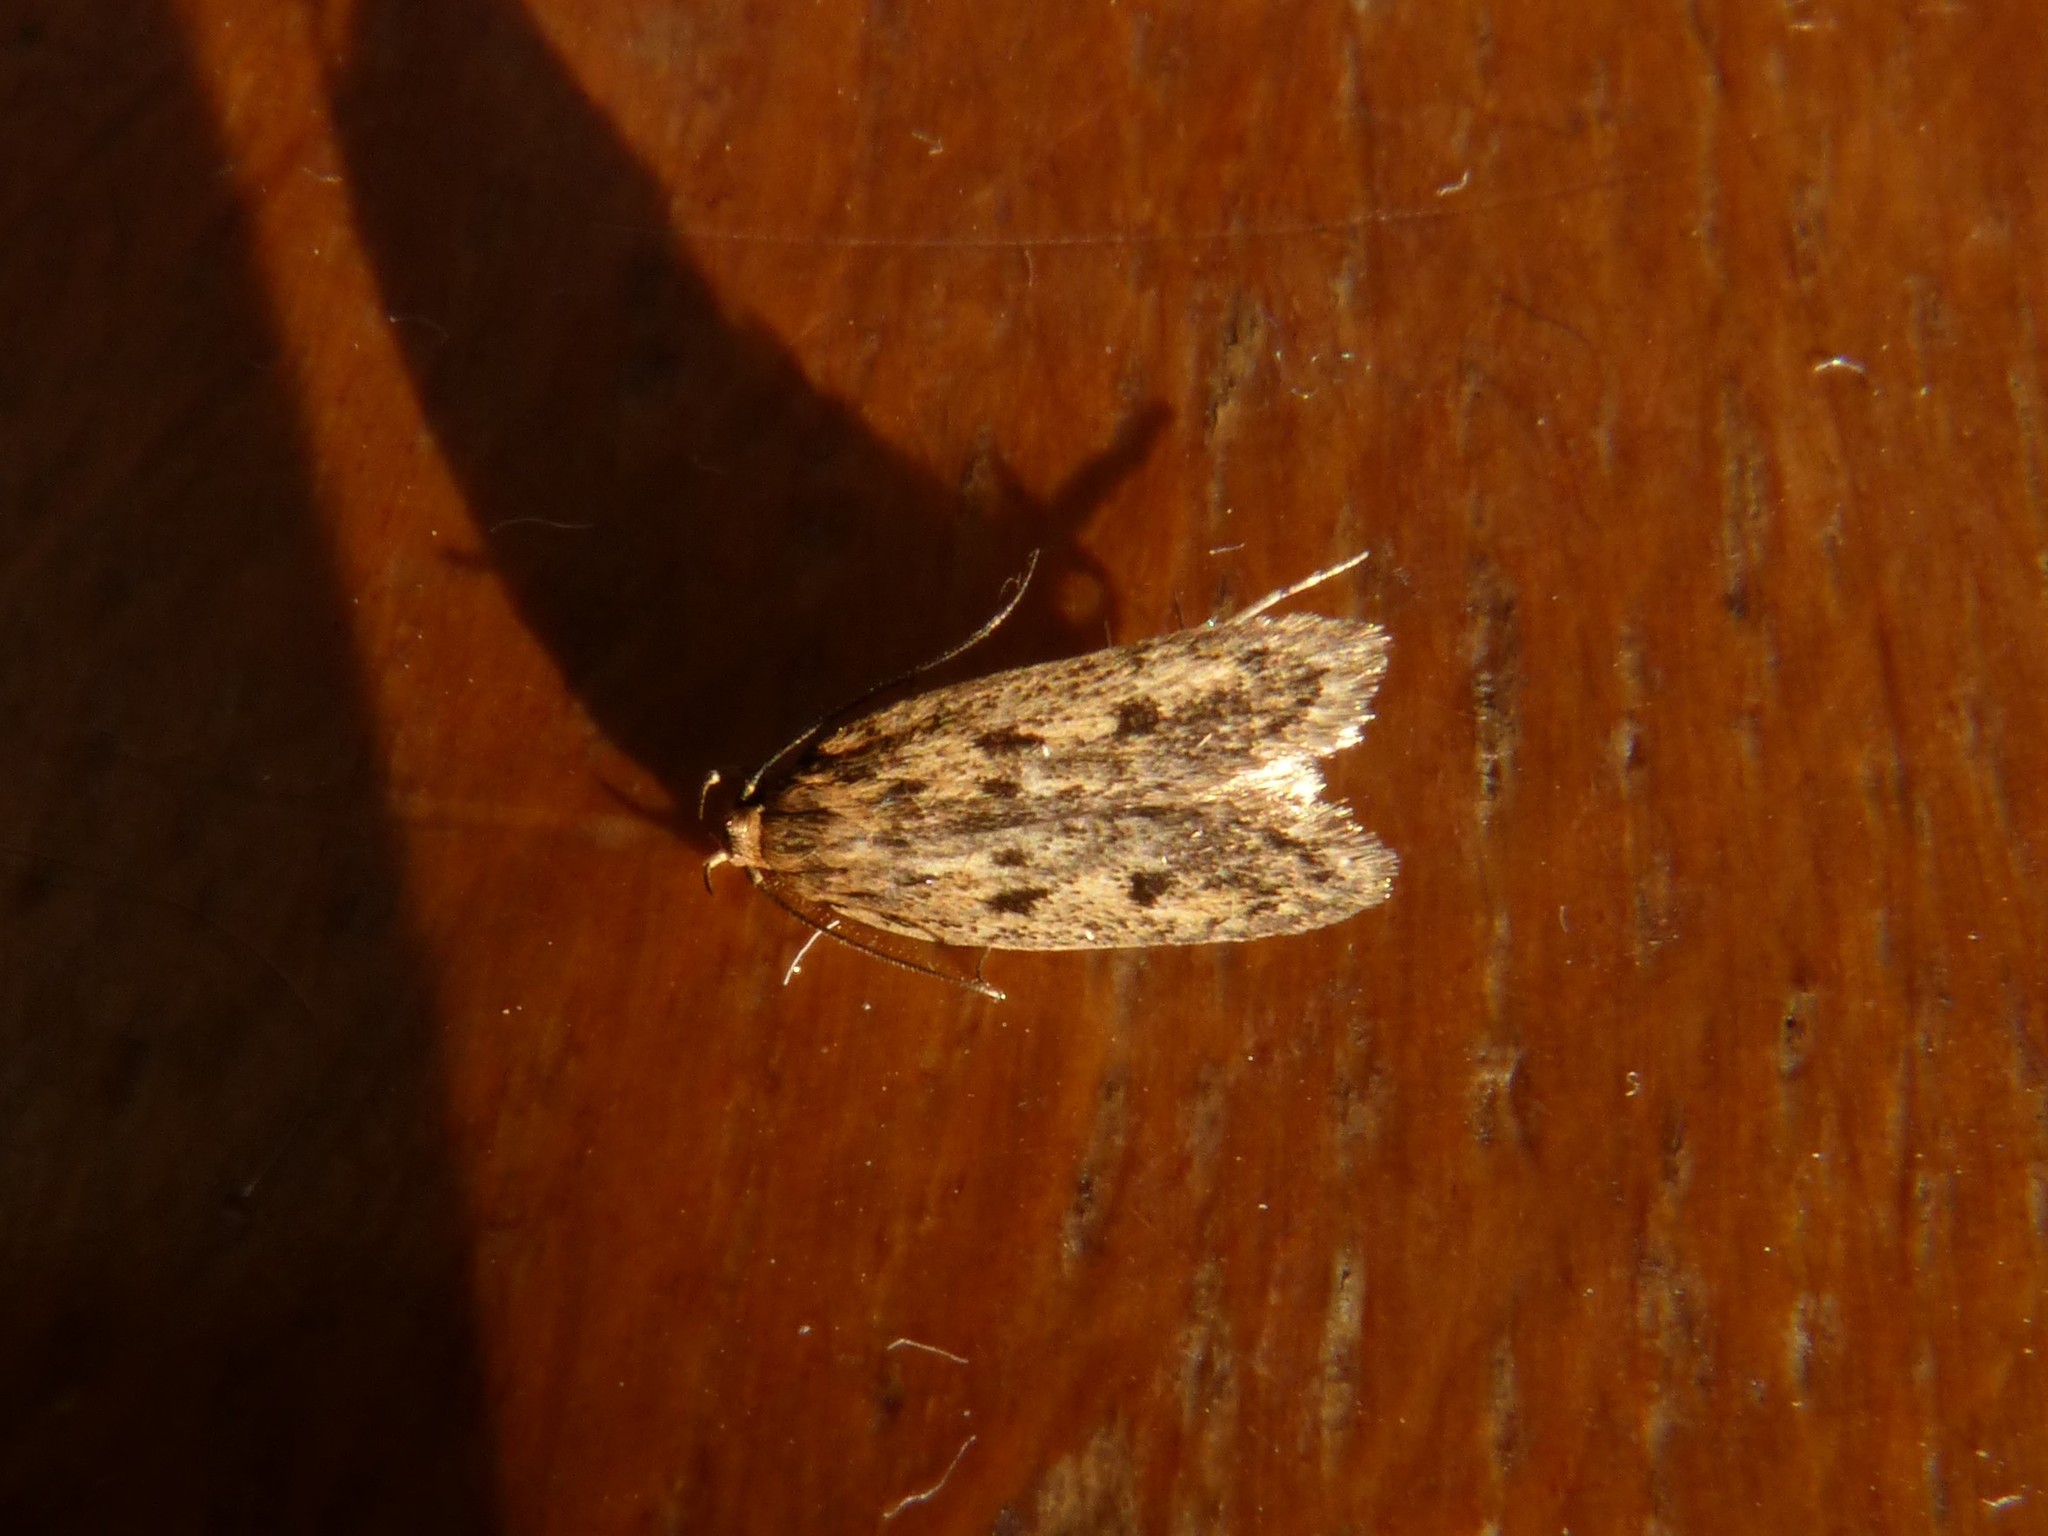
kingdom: Animalia
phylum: Arthropoda
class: Insecta
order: Lepidoptera
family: Oecophoridae
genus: Hofmannophila
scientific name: Hofmannophila pseudospretella
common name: Brown house moth
